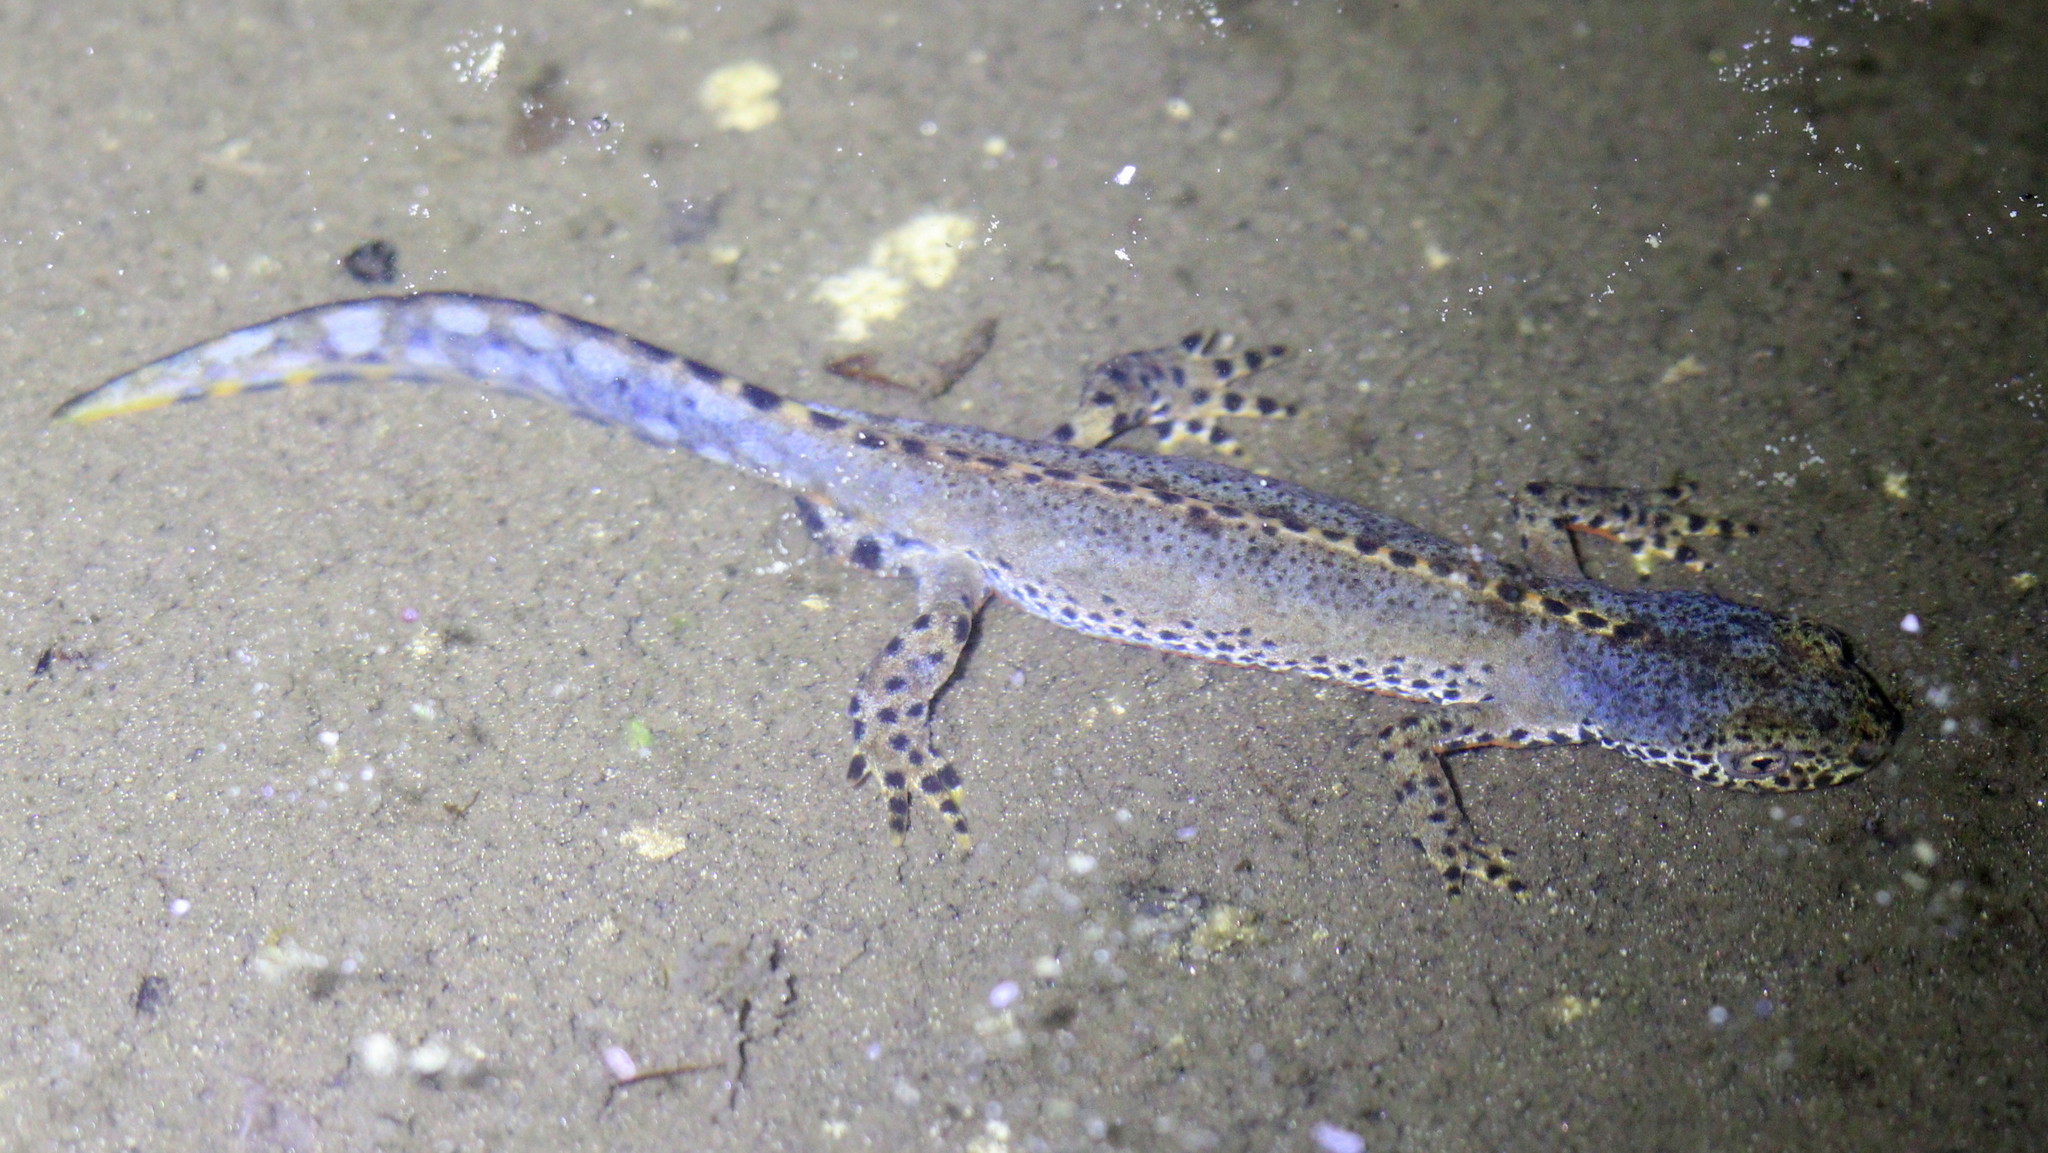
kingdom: Animalia
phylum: Chordata
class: Amphibia
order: Caudata
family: Salamandridae
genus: Ichthyosaura
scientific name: Ichthyosaura alpestris
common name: Alpine newt
